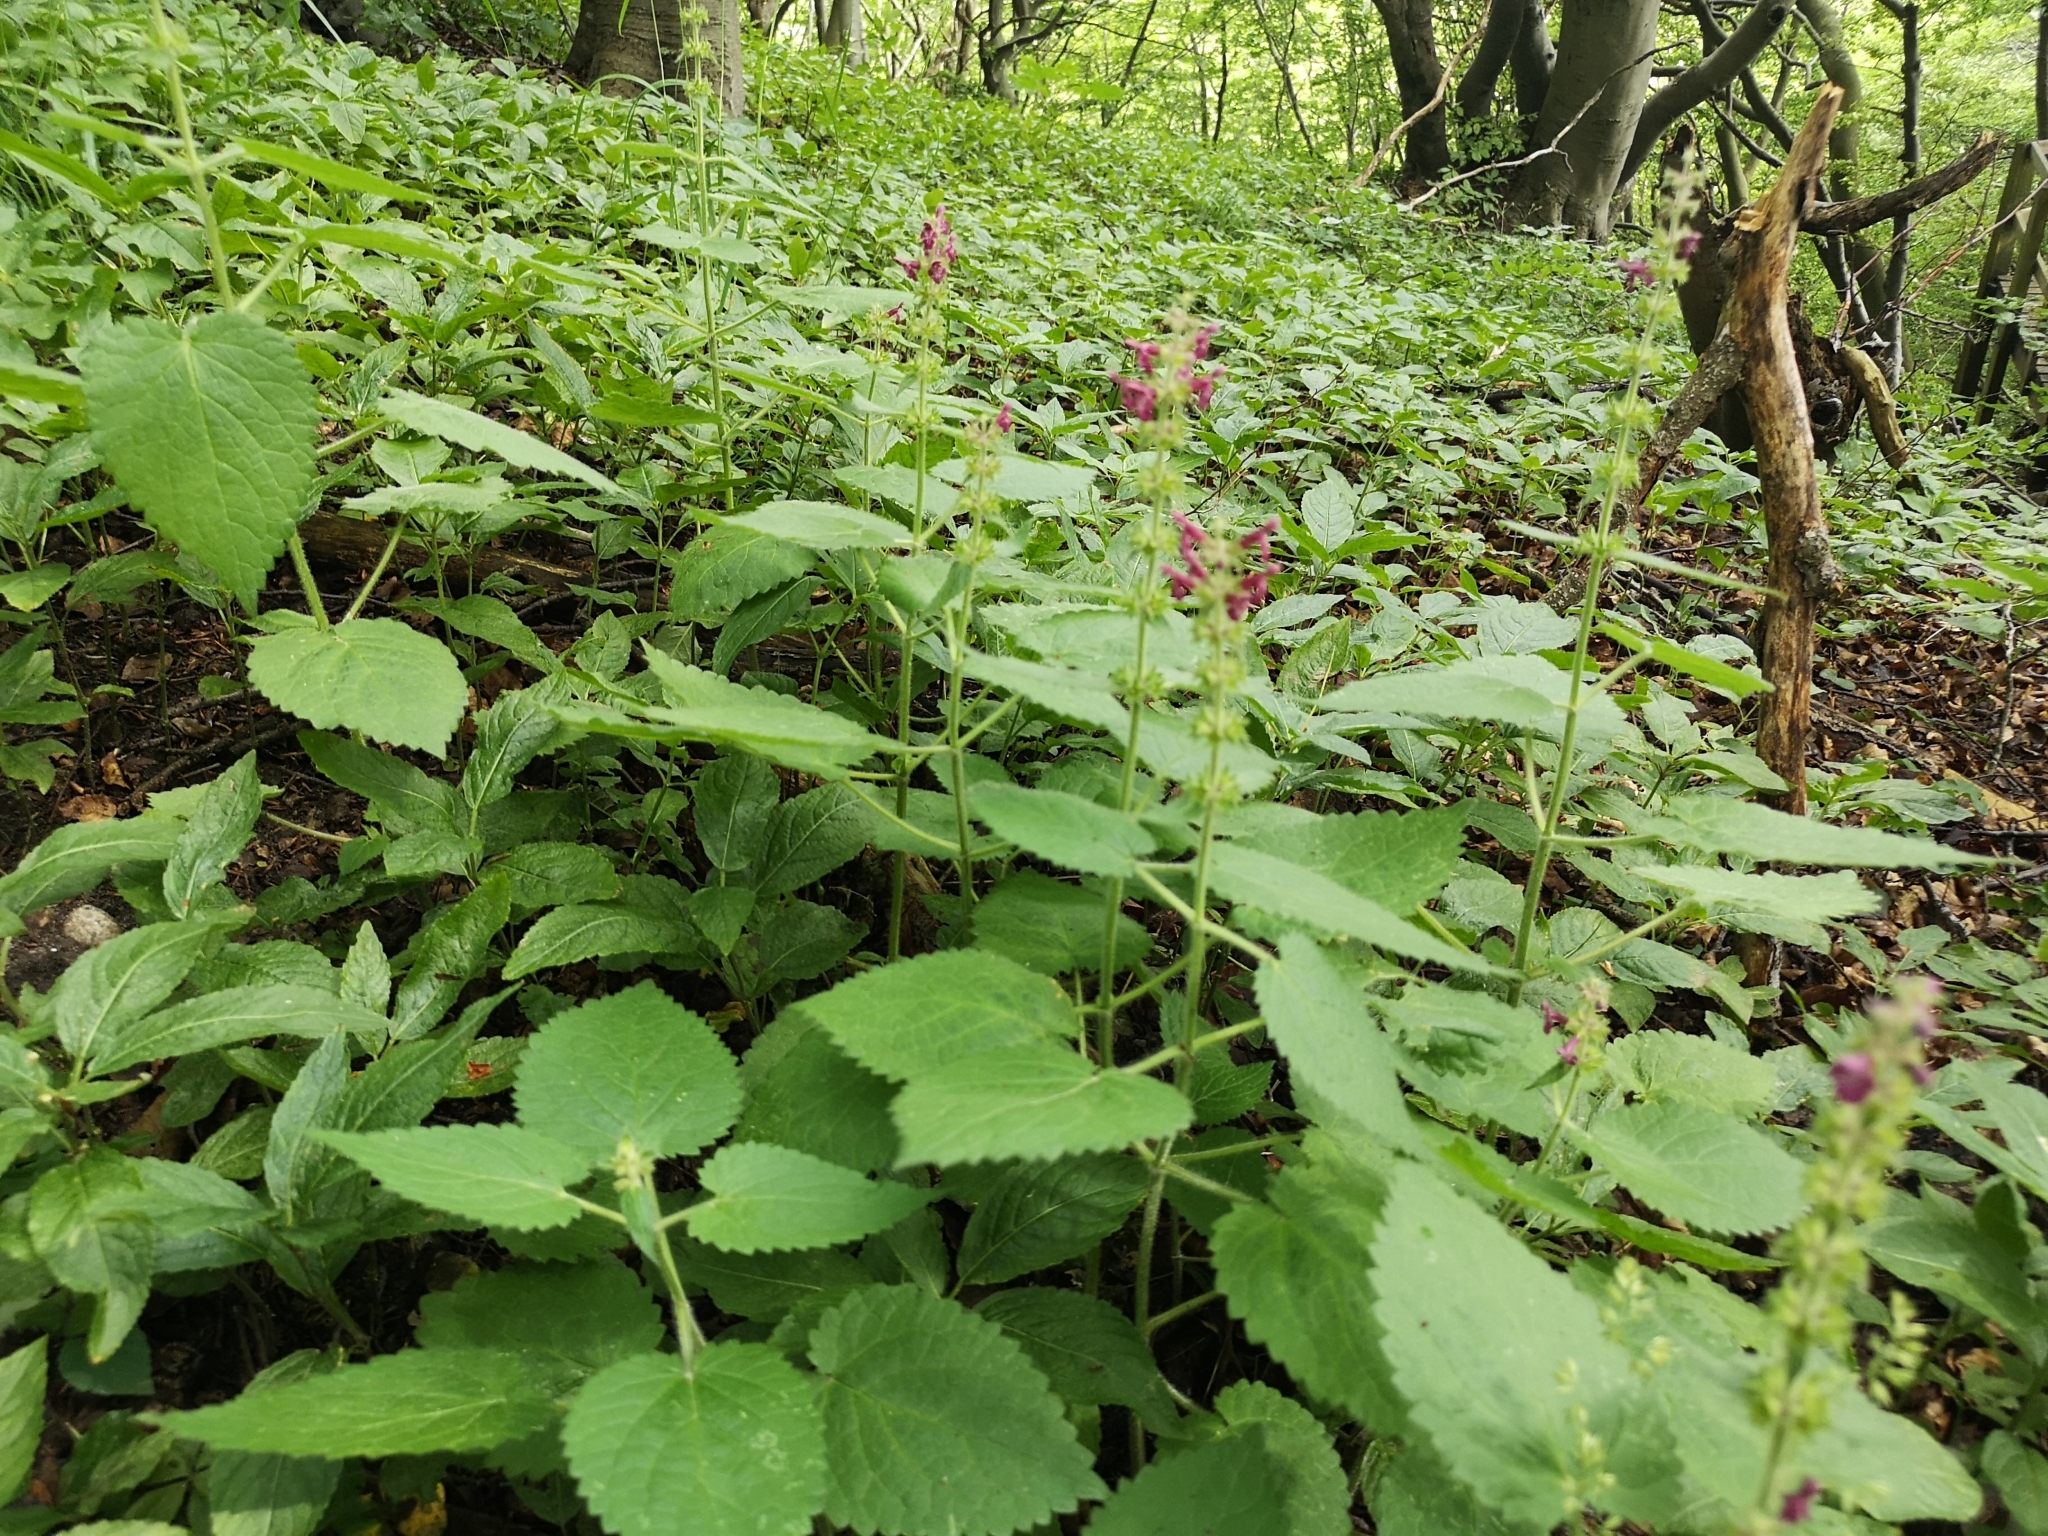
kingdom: Plantae
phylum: Tracheophyta
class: Magnoliopsida
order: Lamiales
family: Lamiaceae
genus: Stachys
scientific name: Stachys sylvatica
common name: Hedge woundwort
